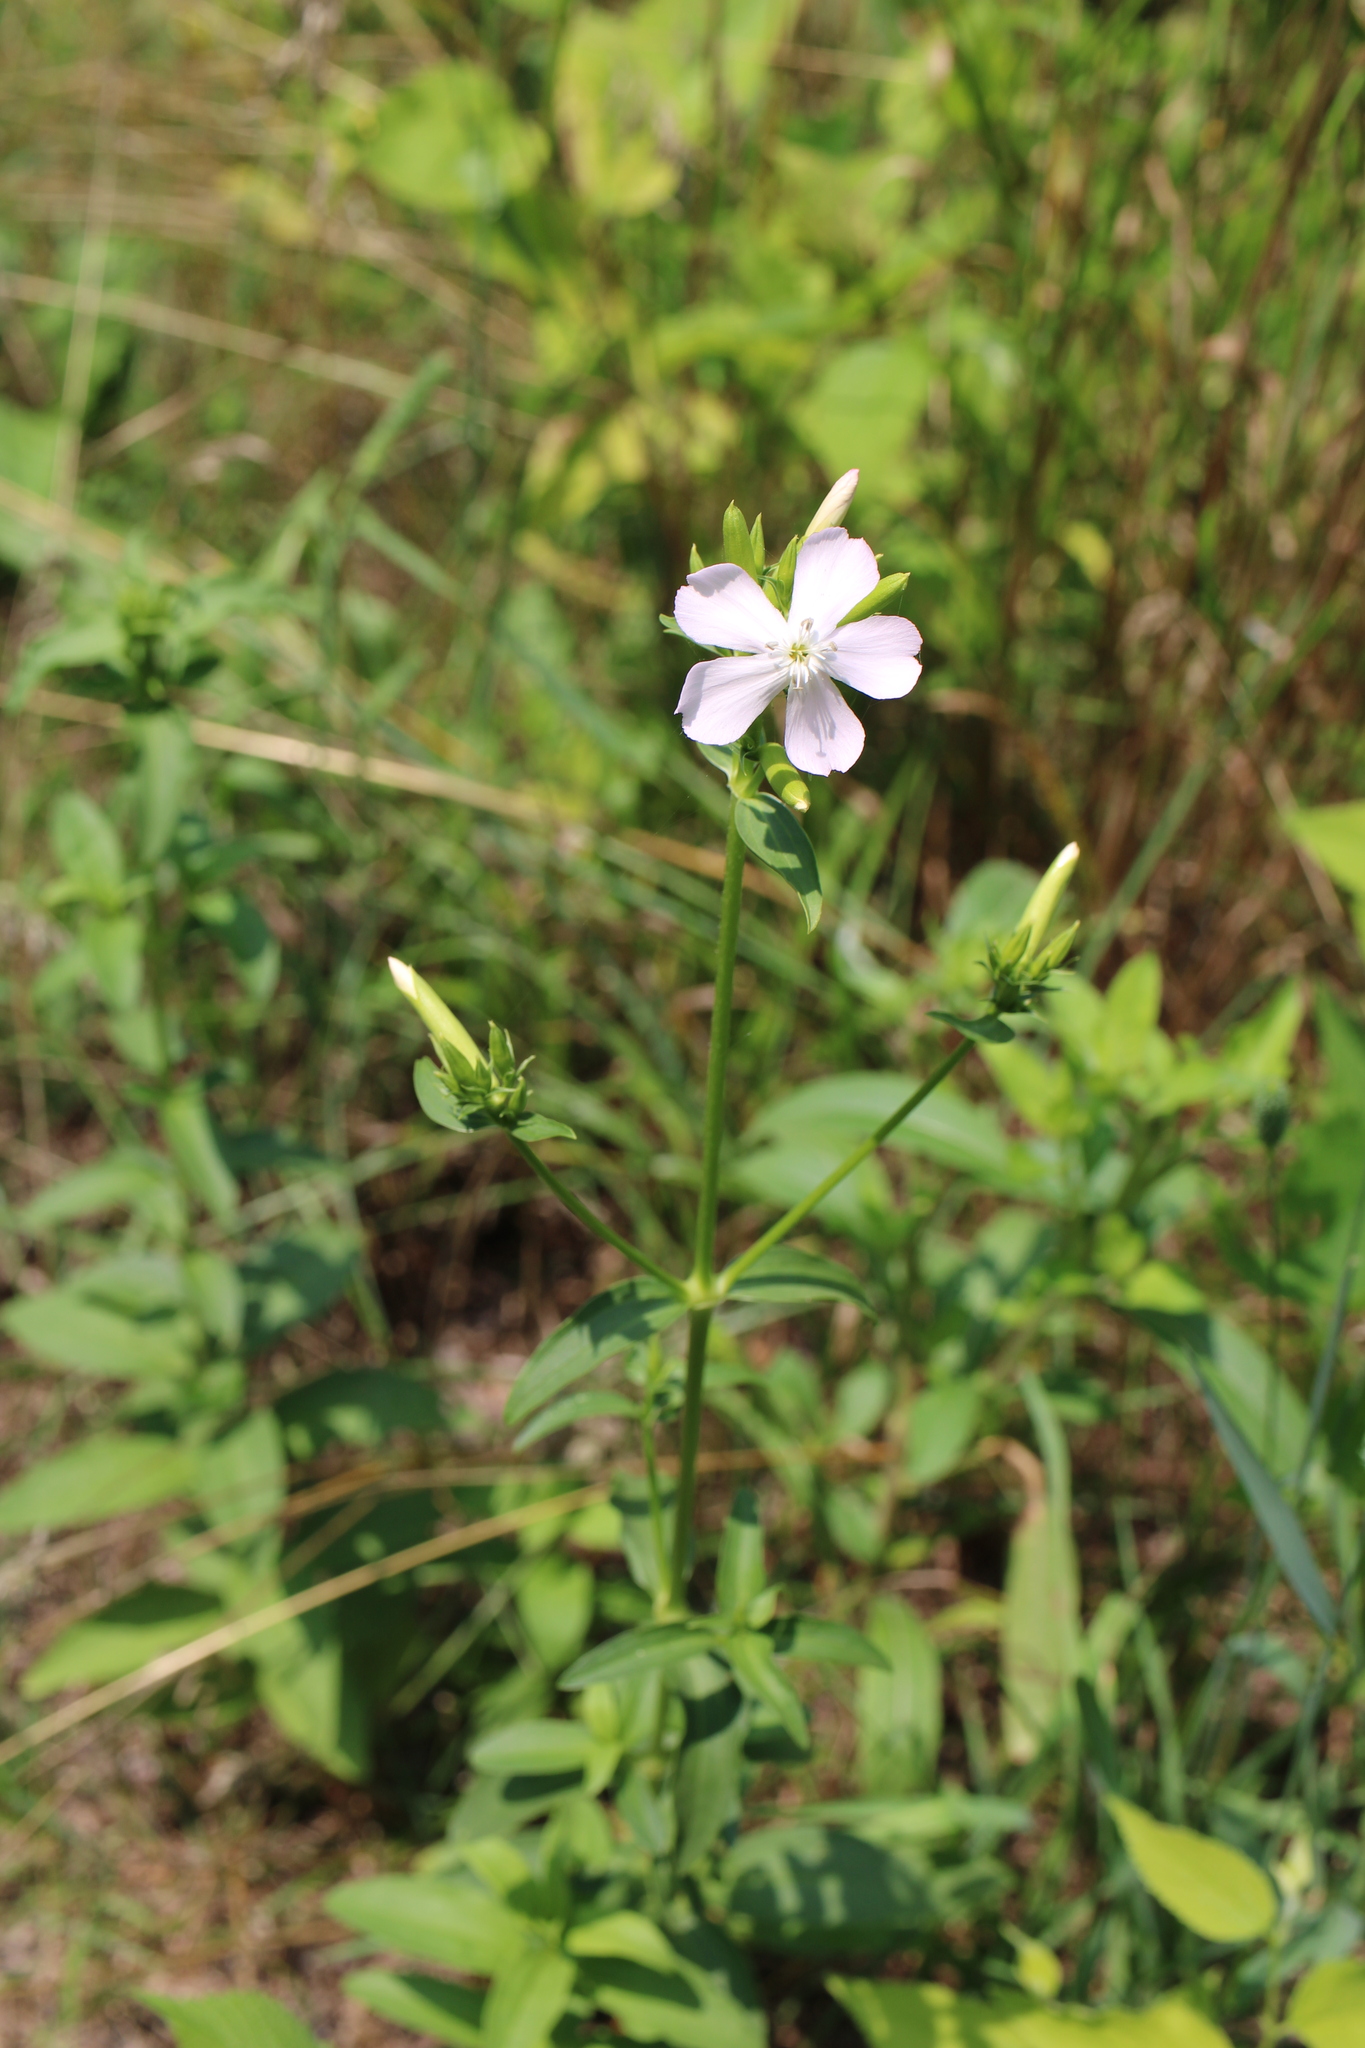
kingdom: Plantae
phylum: Tracheophyta
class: Magnoliopsida
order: Caryophyllales
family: Caryophyllaceae
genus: Saponaria
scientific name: Saponaria officinalis
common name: Soapwort
